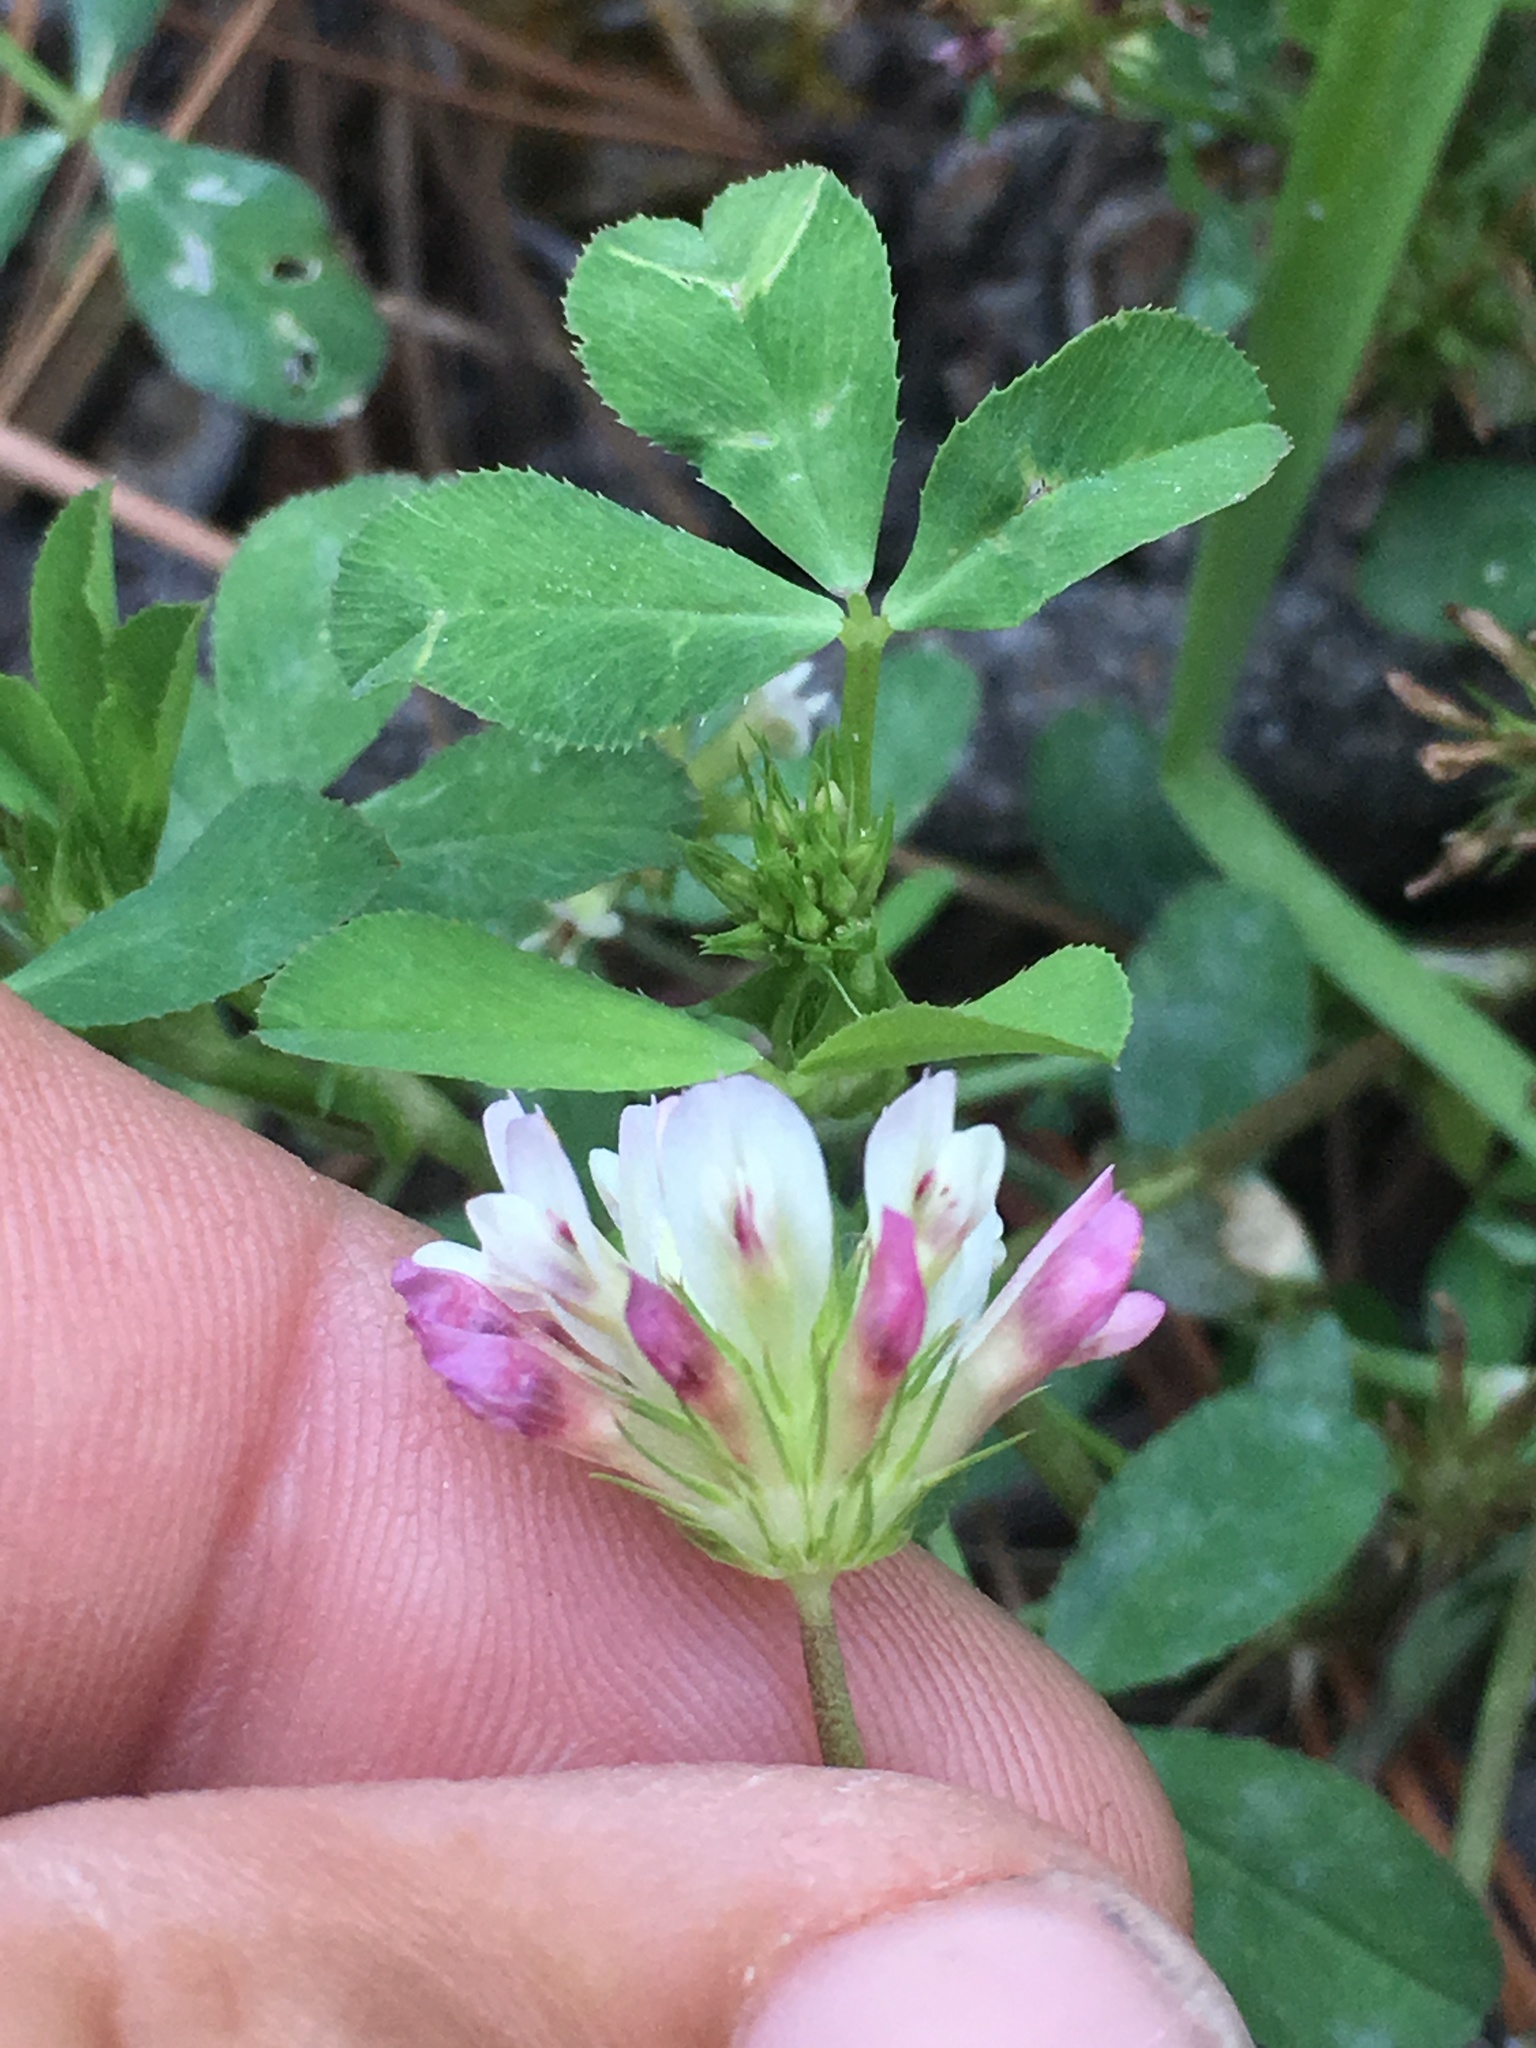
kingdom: Plantae
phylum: Tracheophyta
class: Magnoliopsida
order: Fabales
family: Fabaceae
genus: Trifolium
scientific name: Trifolium wormskioldii
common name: Springbank clover
